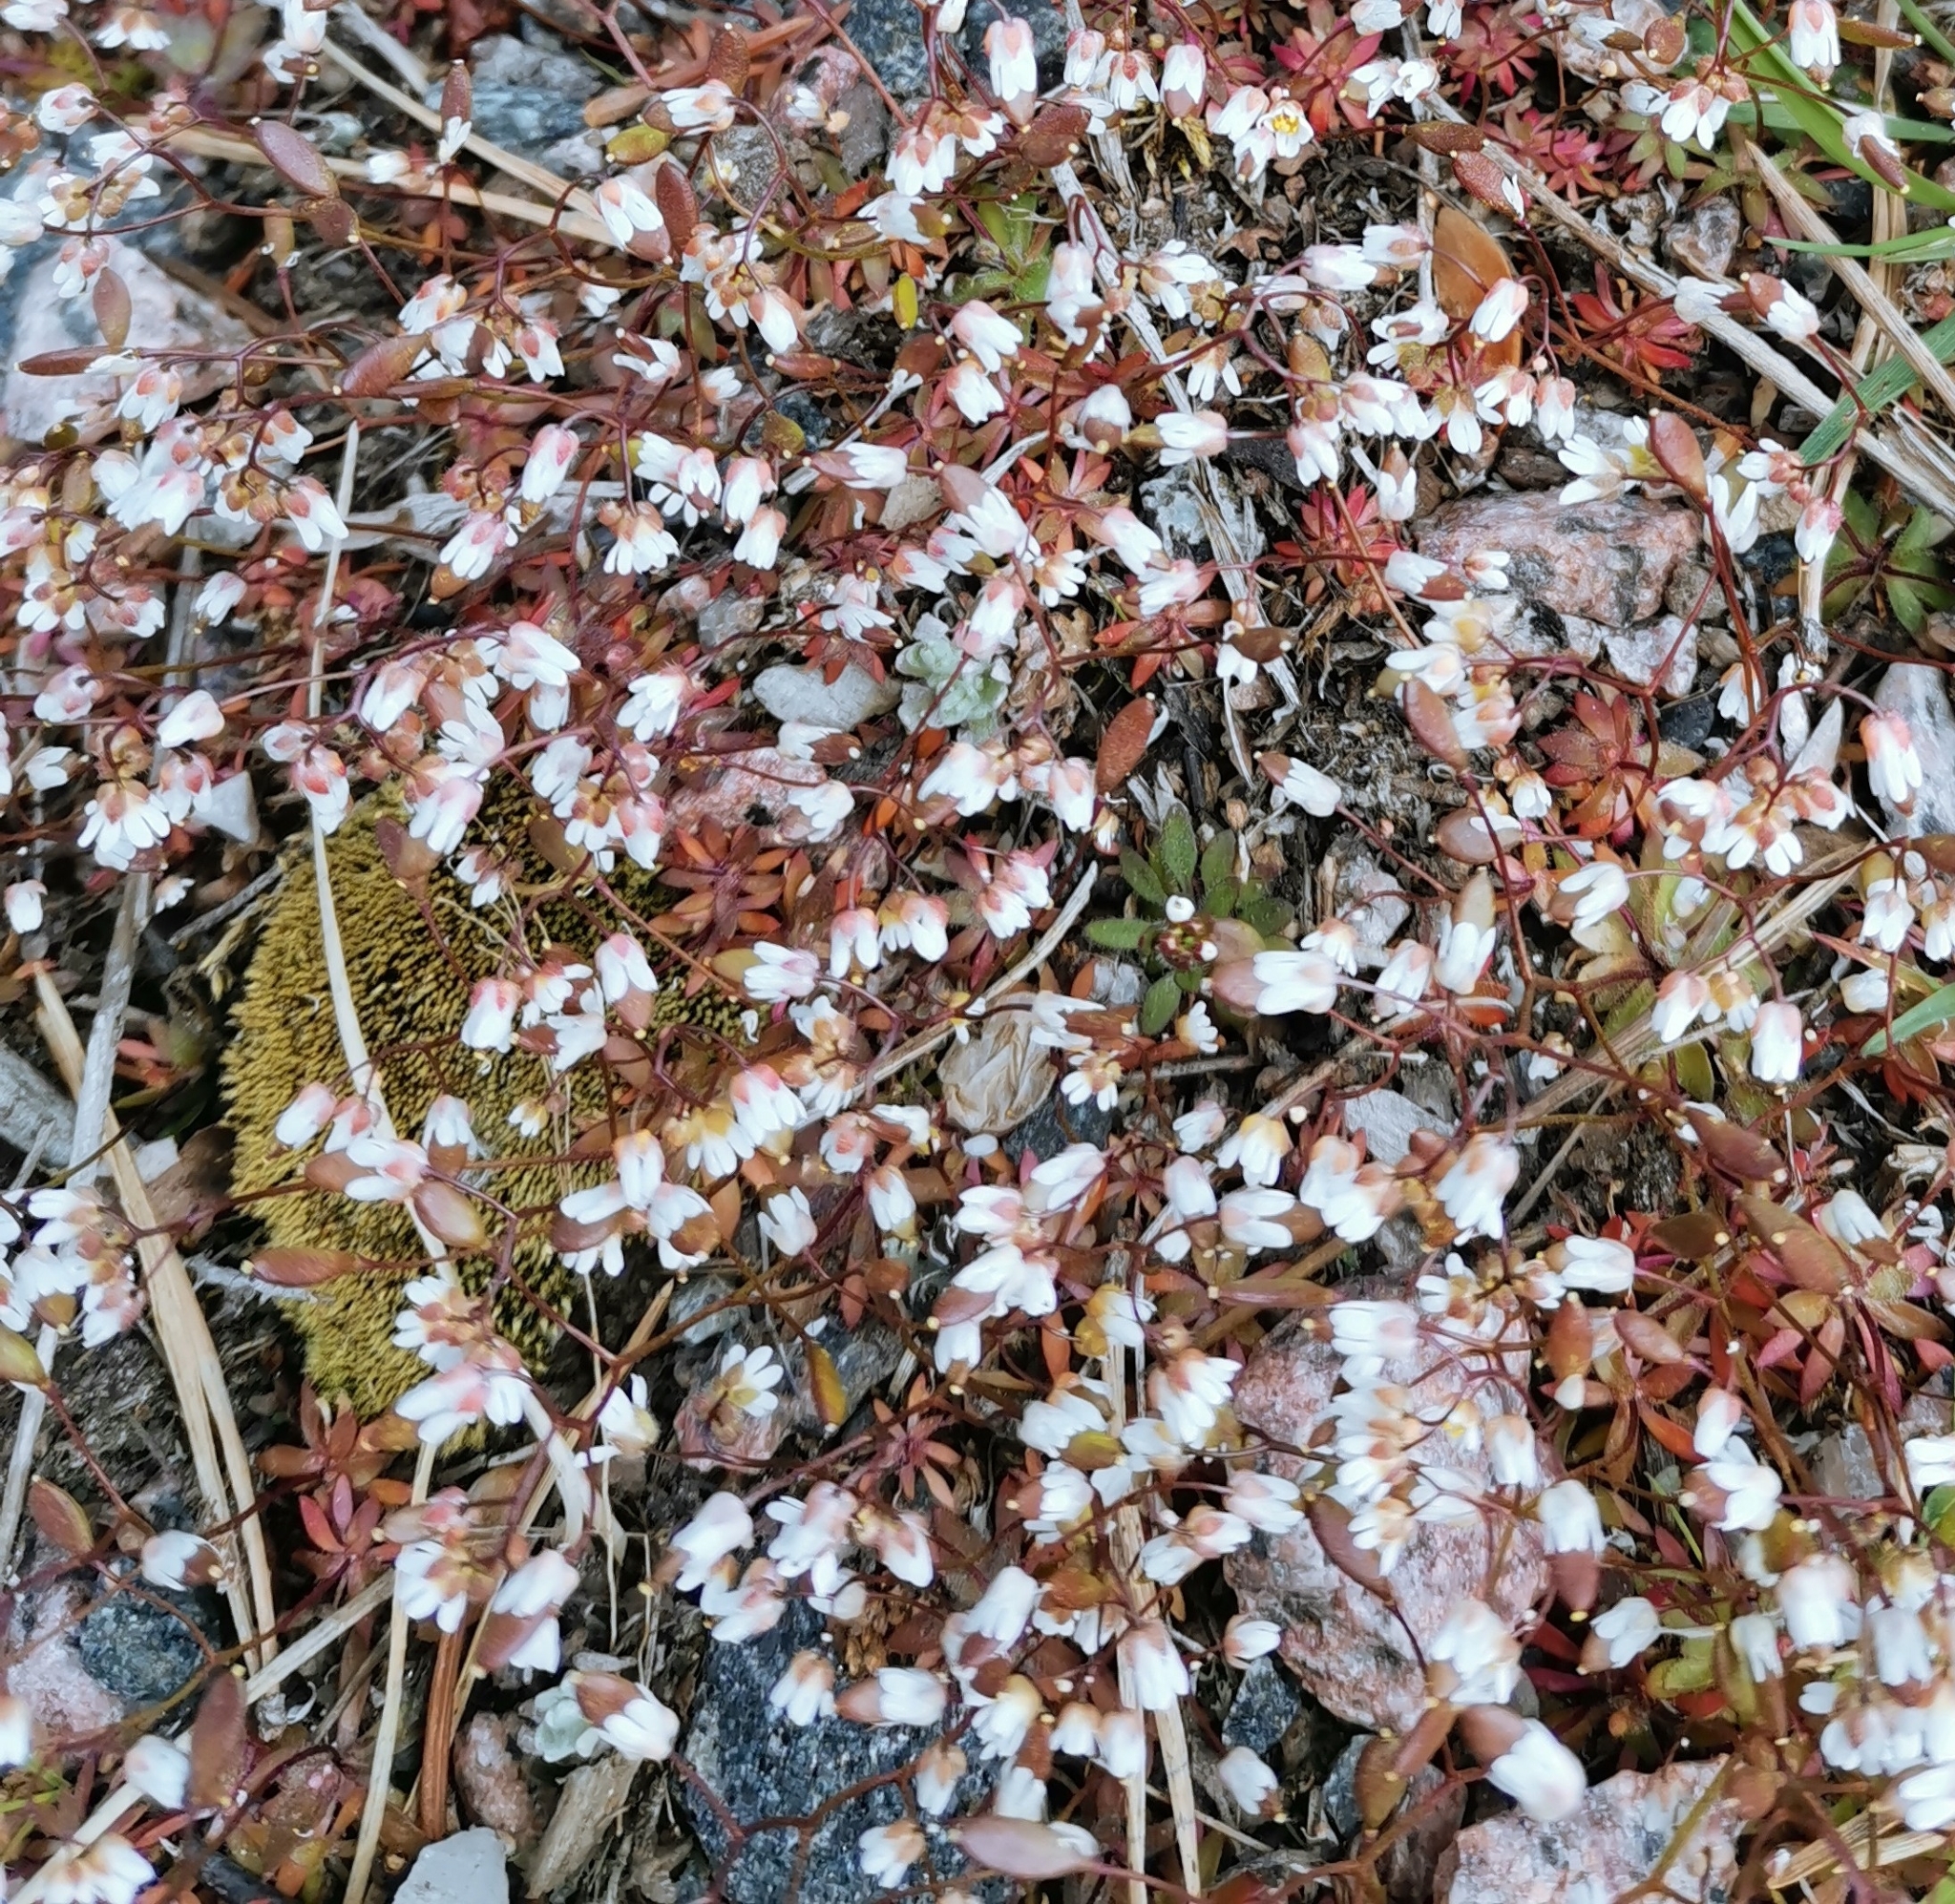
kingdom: Plantae
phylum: Tracheophyta
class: Magnoliopsida
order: Brassicales
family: Brassicaceae
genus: Draba
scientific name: Draba verna
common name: Spring draba
